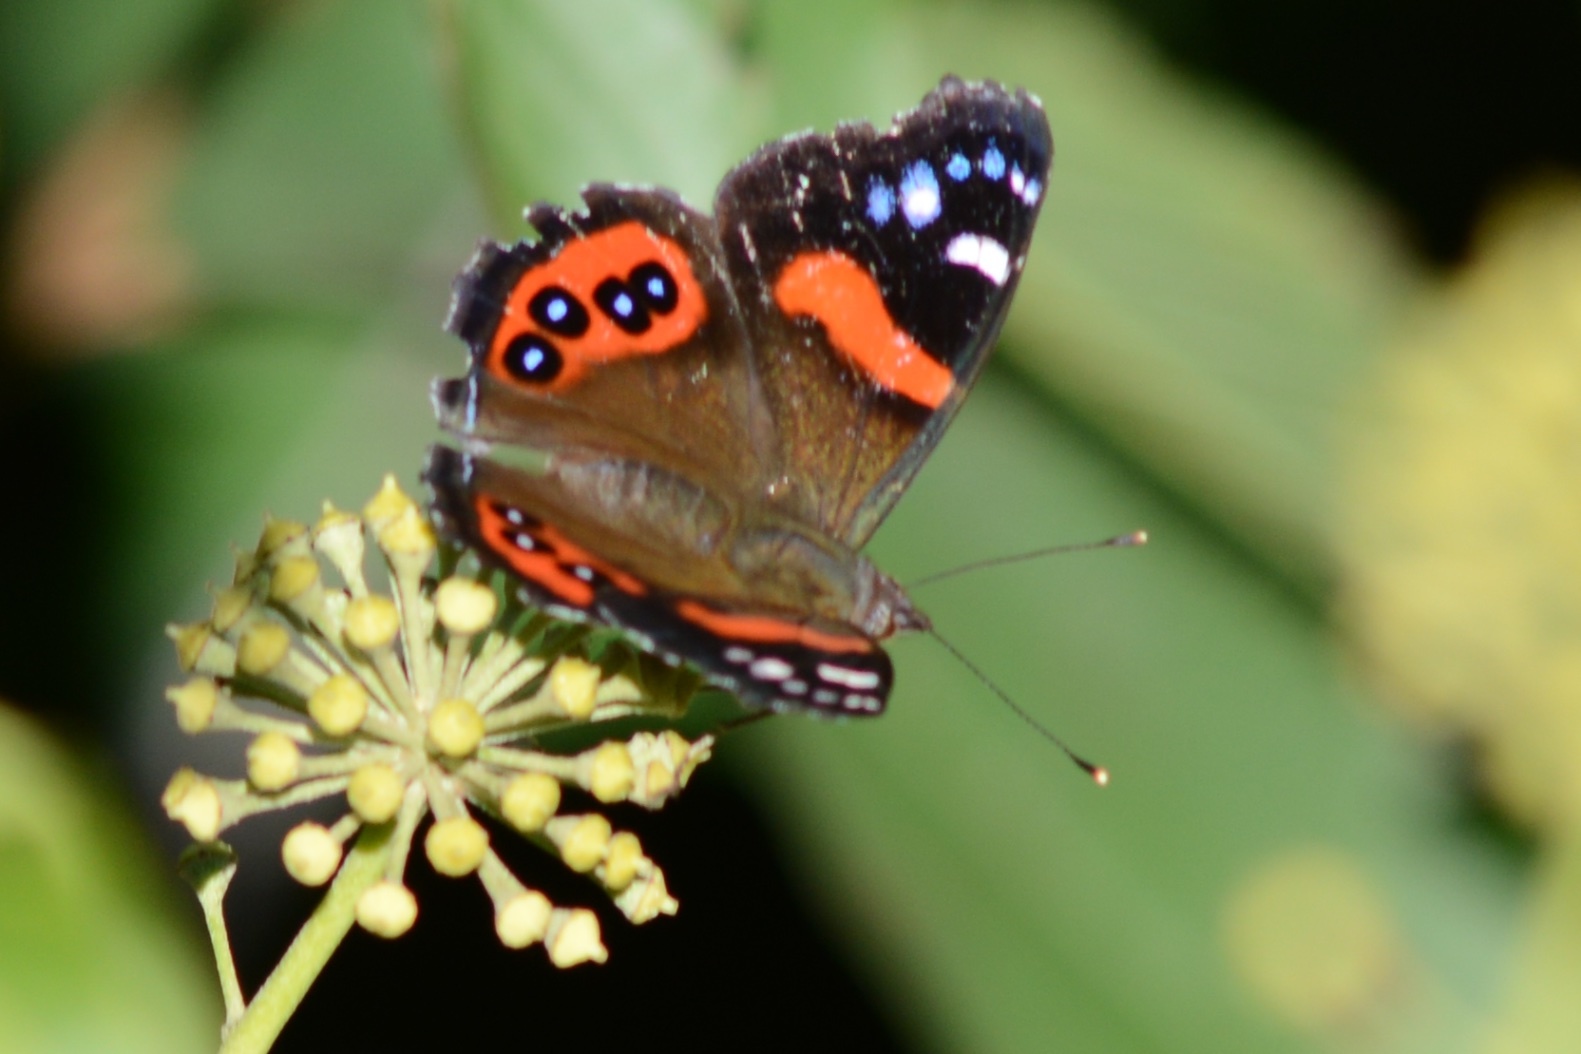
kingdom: Animalia
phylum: Arthropoda
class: Insecta
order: Lepidoptera
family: Nymphalidae
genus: Vanessa
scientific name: Vanessa gonerilla
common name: New zealand red admiral
